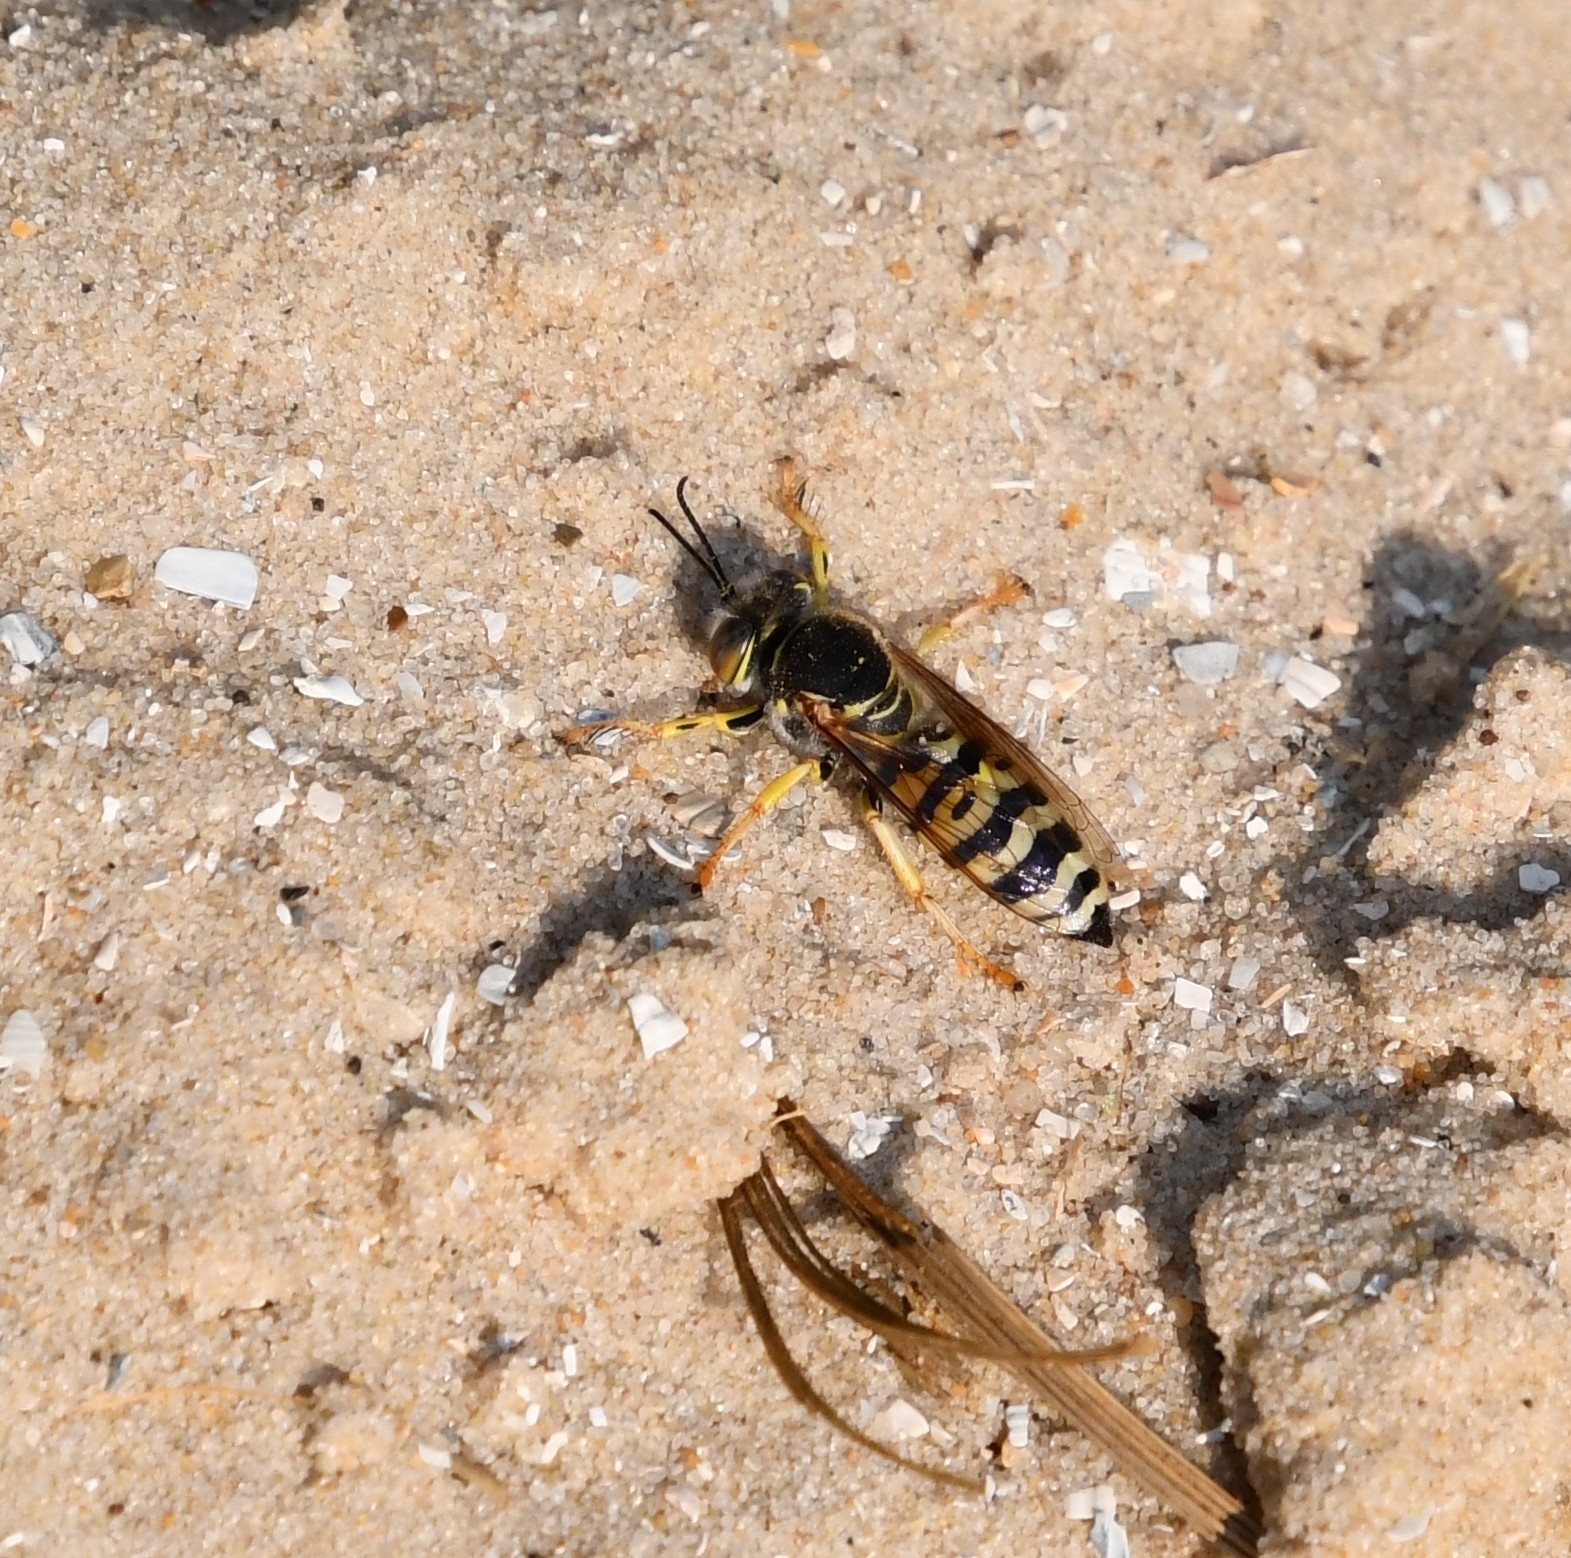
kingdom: Animalia
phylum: Arthropoda
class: Insecta
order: Hymenoptera
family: Crabronidae
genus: Bembix
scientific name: Bembix oculata
